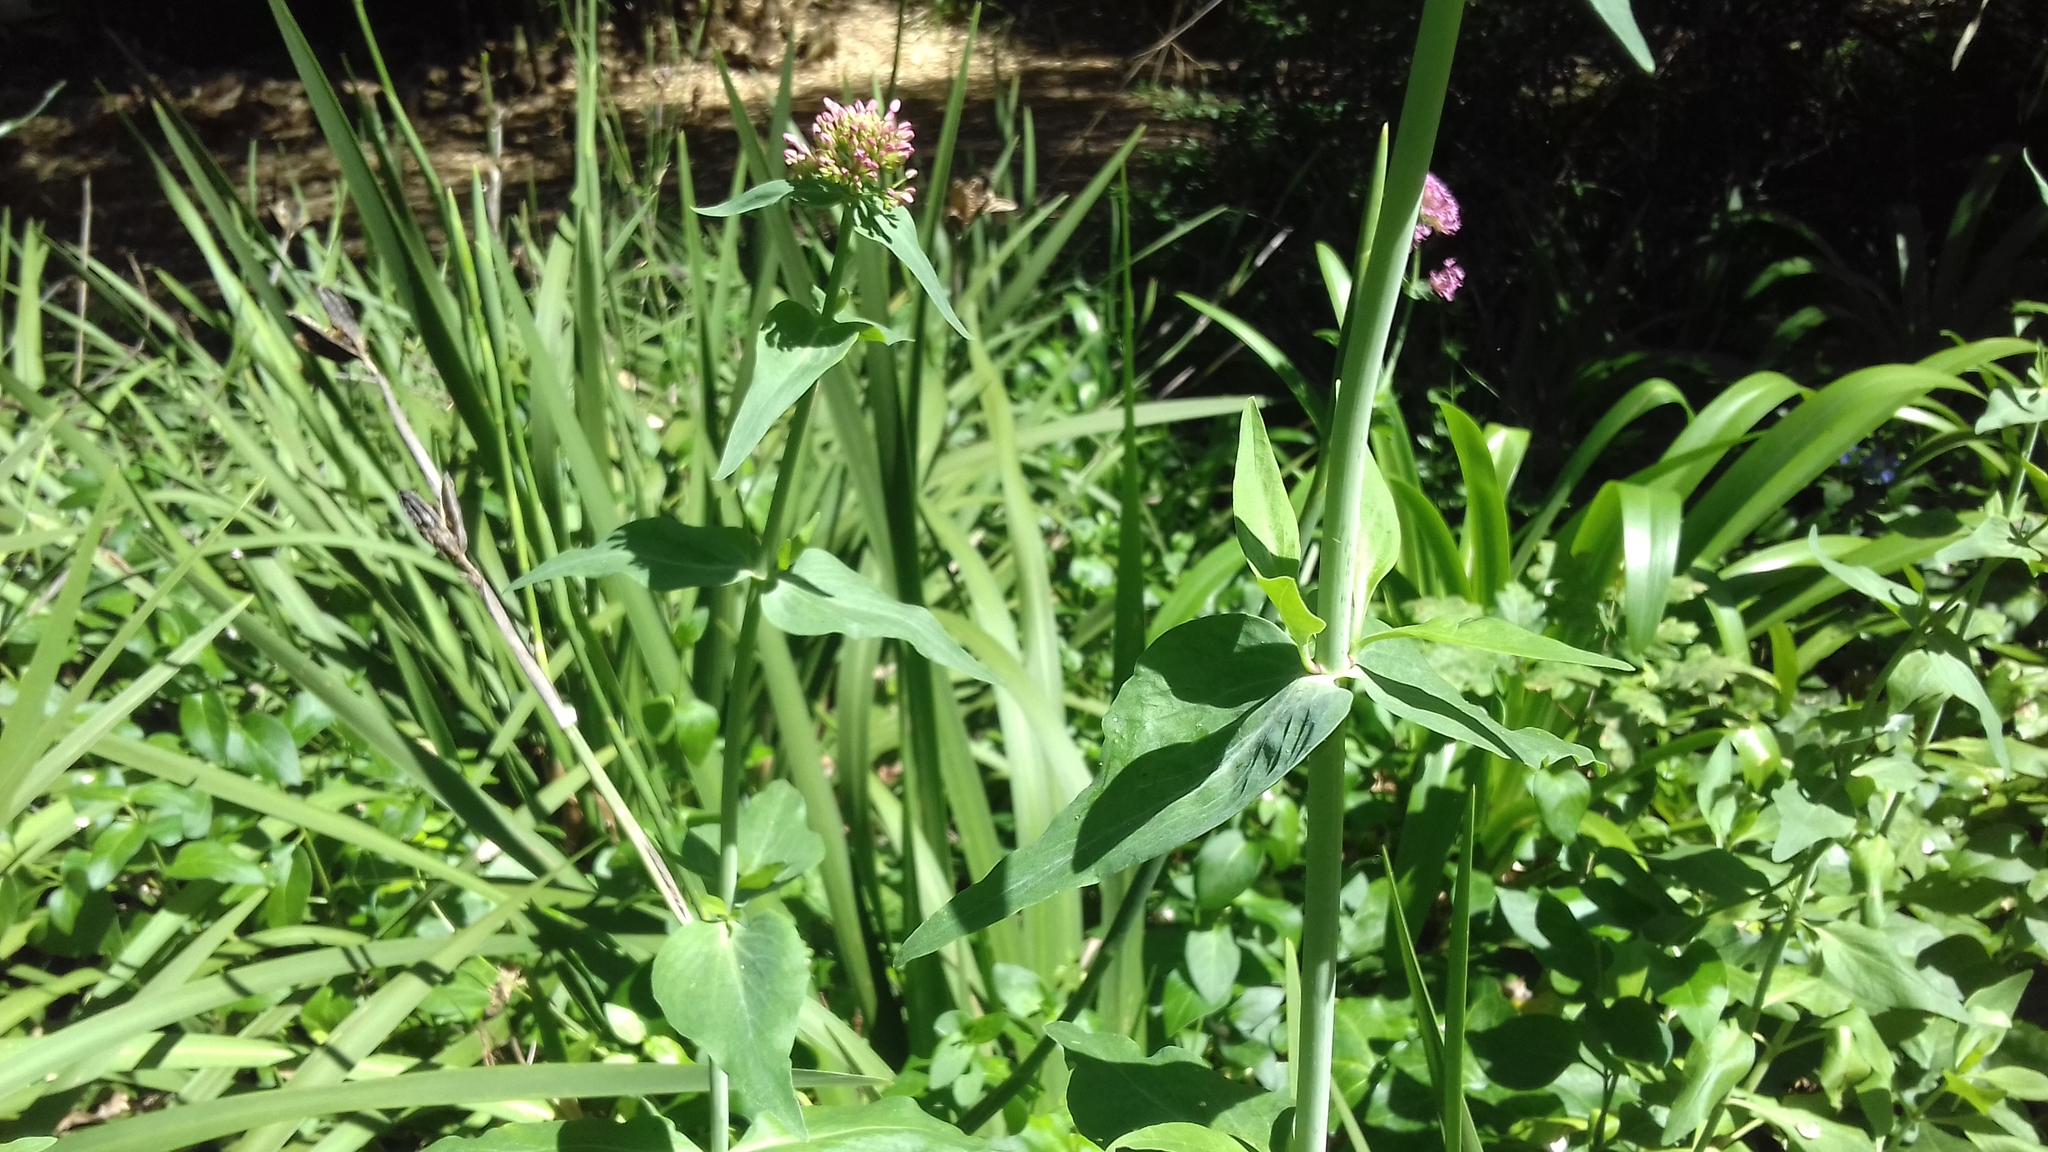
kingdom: Plantae
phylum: Tracheophyta
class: Magnoliopsida
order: Dipsacales
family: Caprifoliaceae
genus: Centranthus
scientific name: Centranthus ruber
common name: Red valerian
